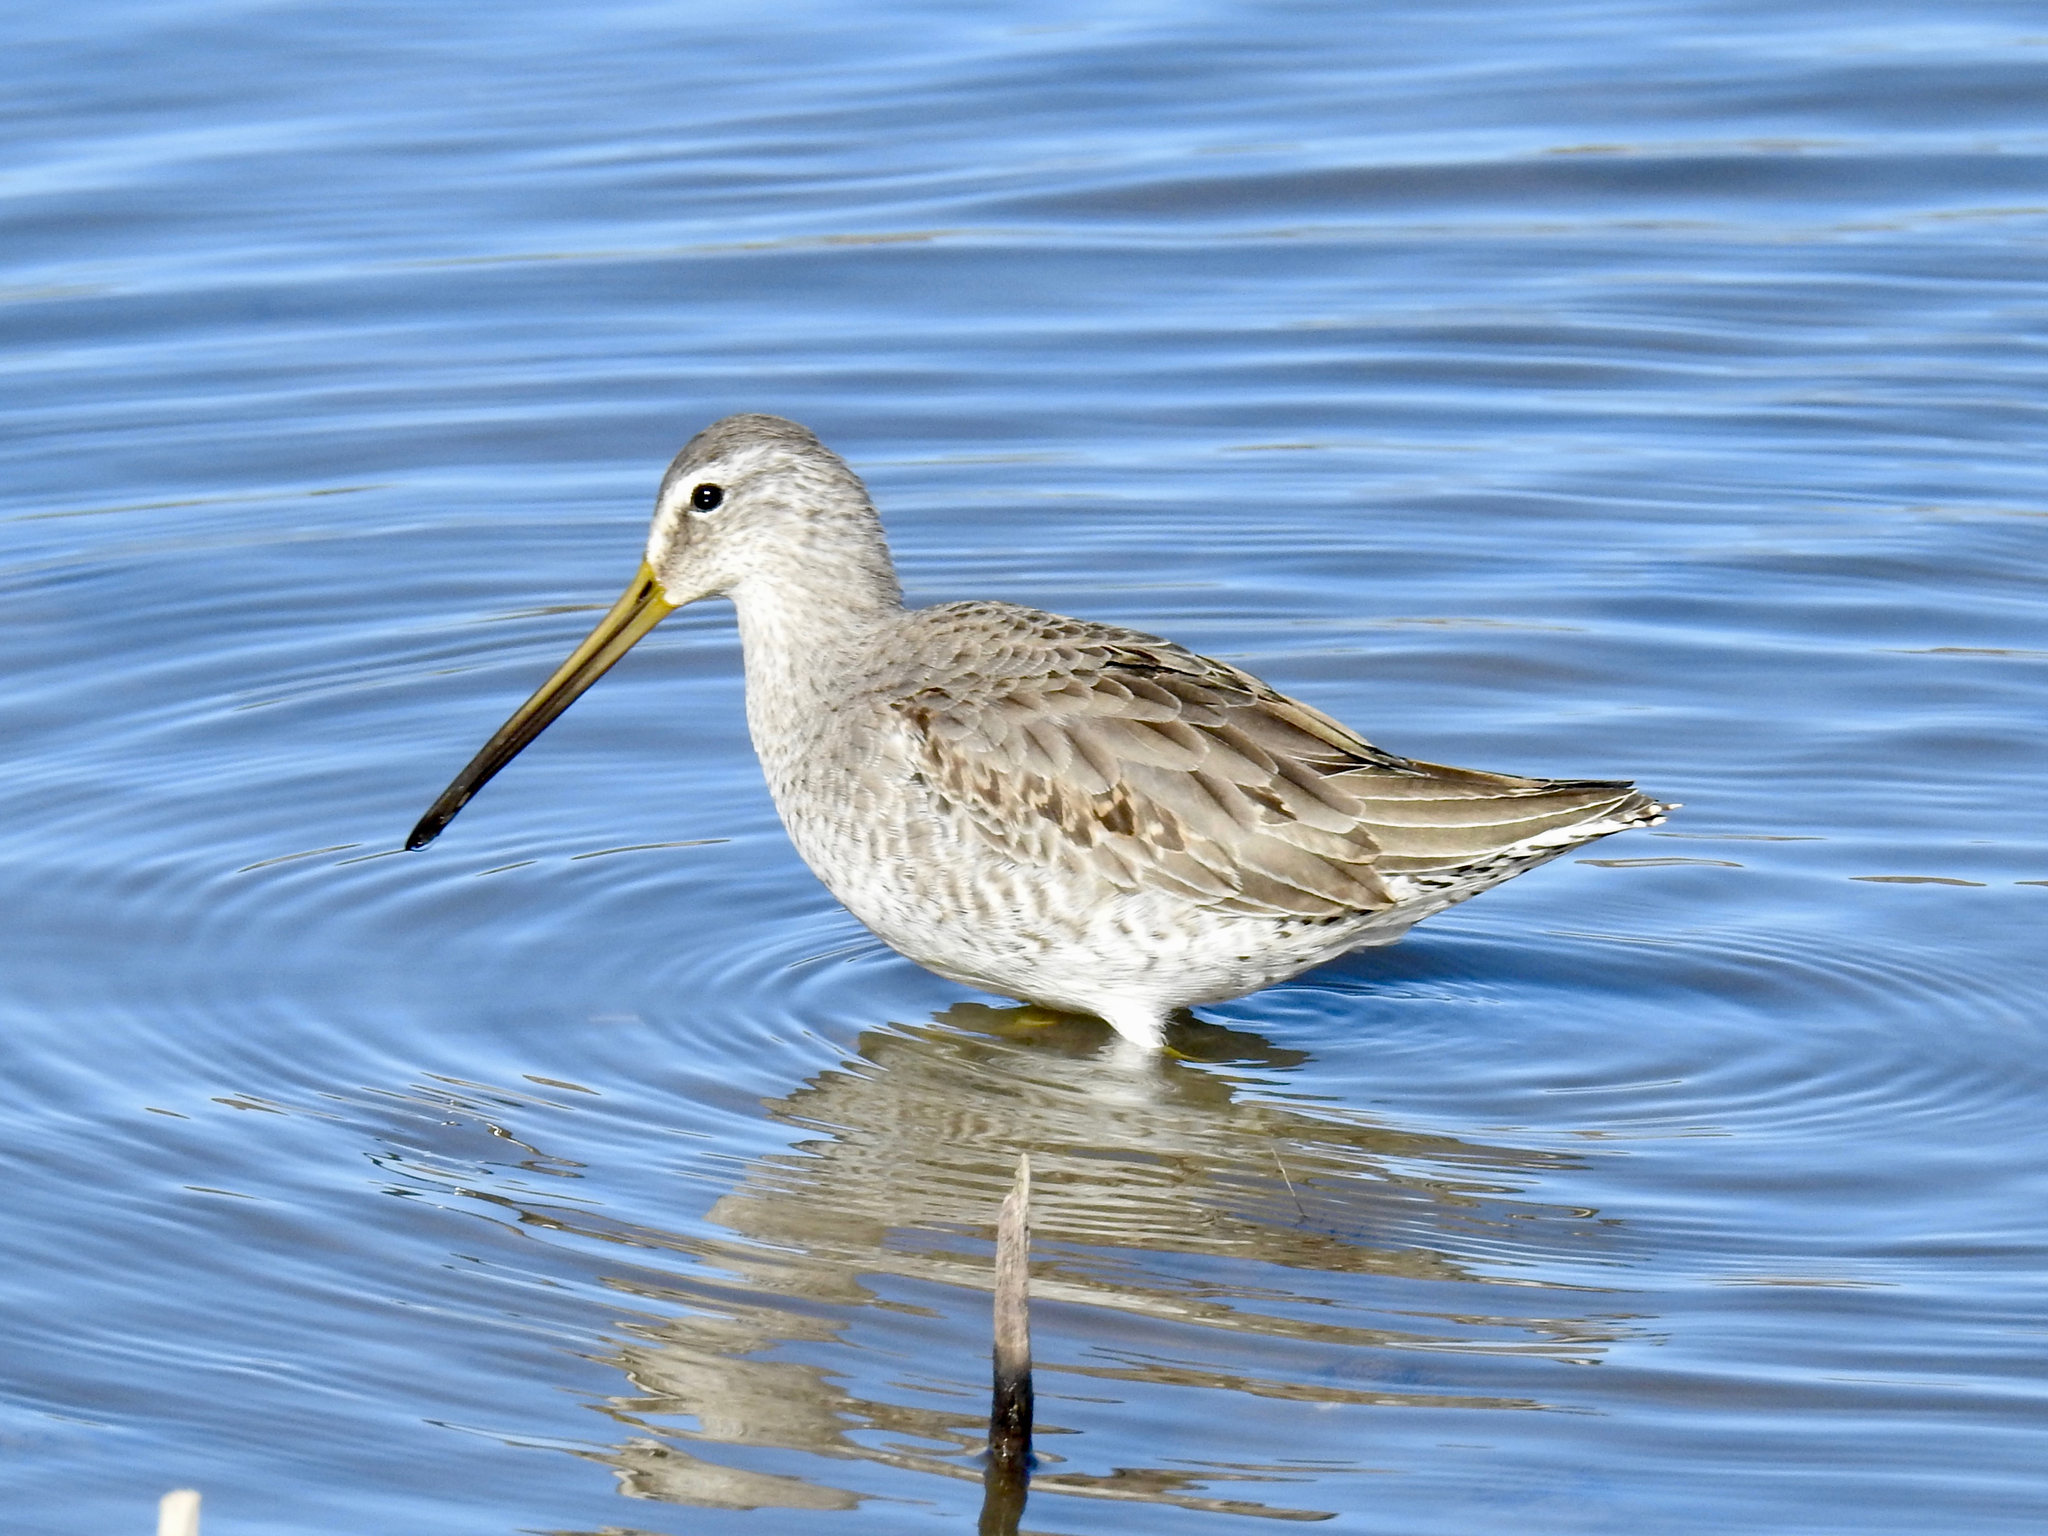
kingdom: Animalia
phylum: Chordata
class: Aves
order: Charadriiformes
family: Scolopacidae
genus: Limnodromus
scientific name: Limnodromus scolopaceus
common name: Long-billed dowitcher
